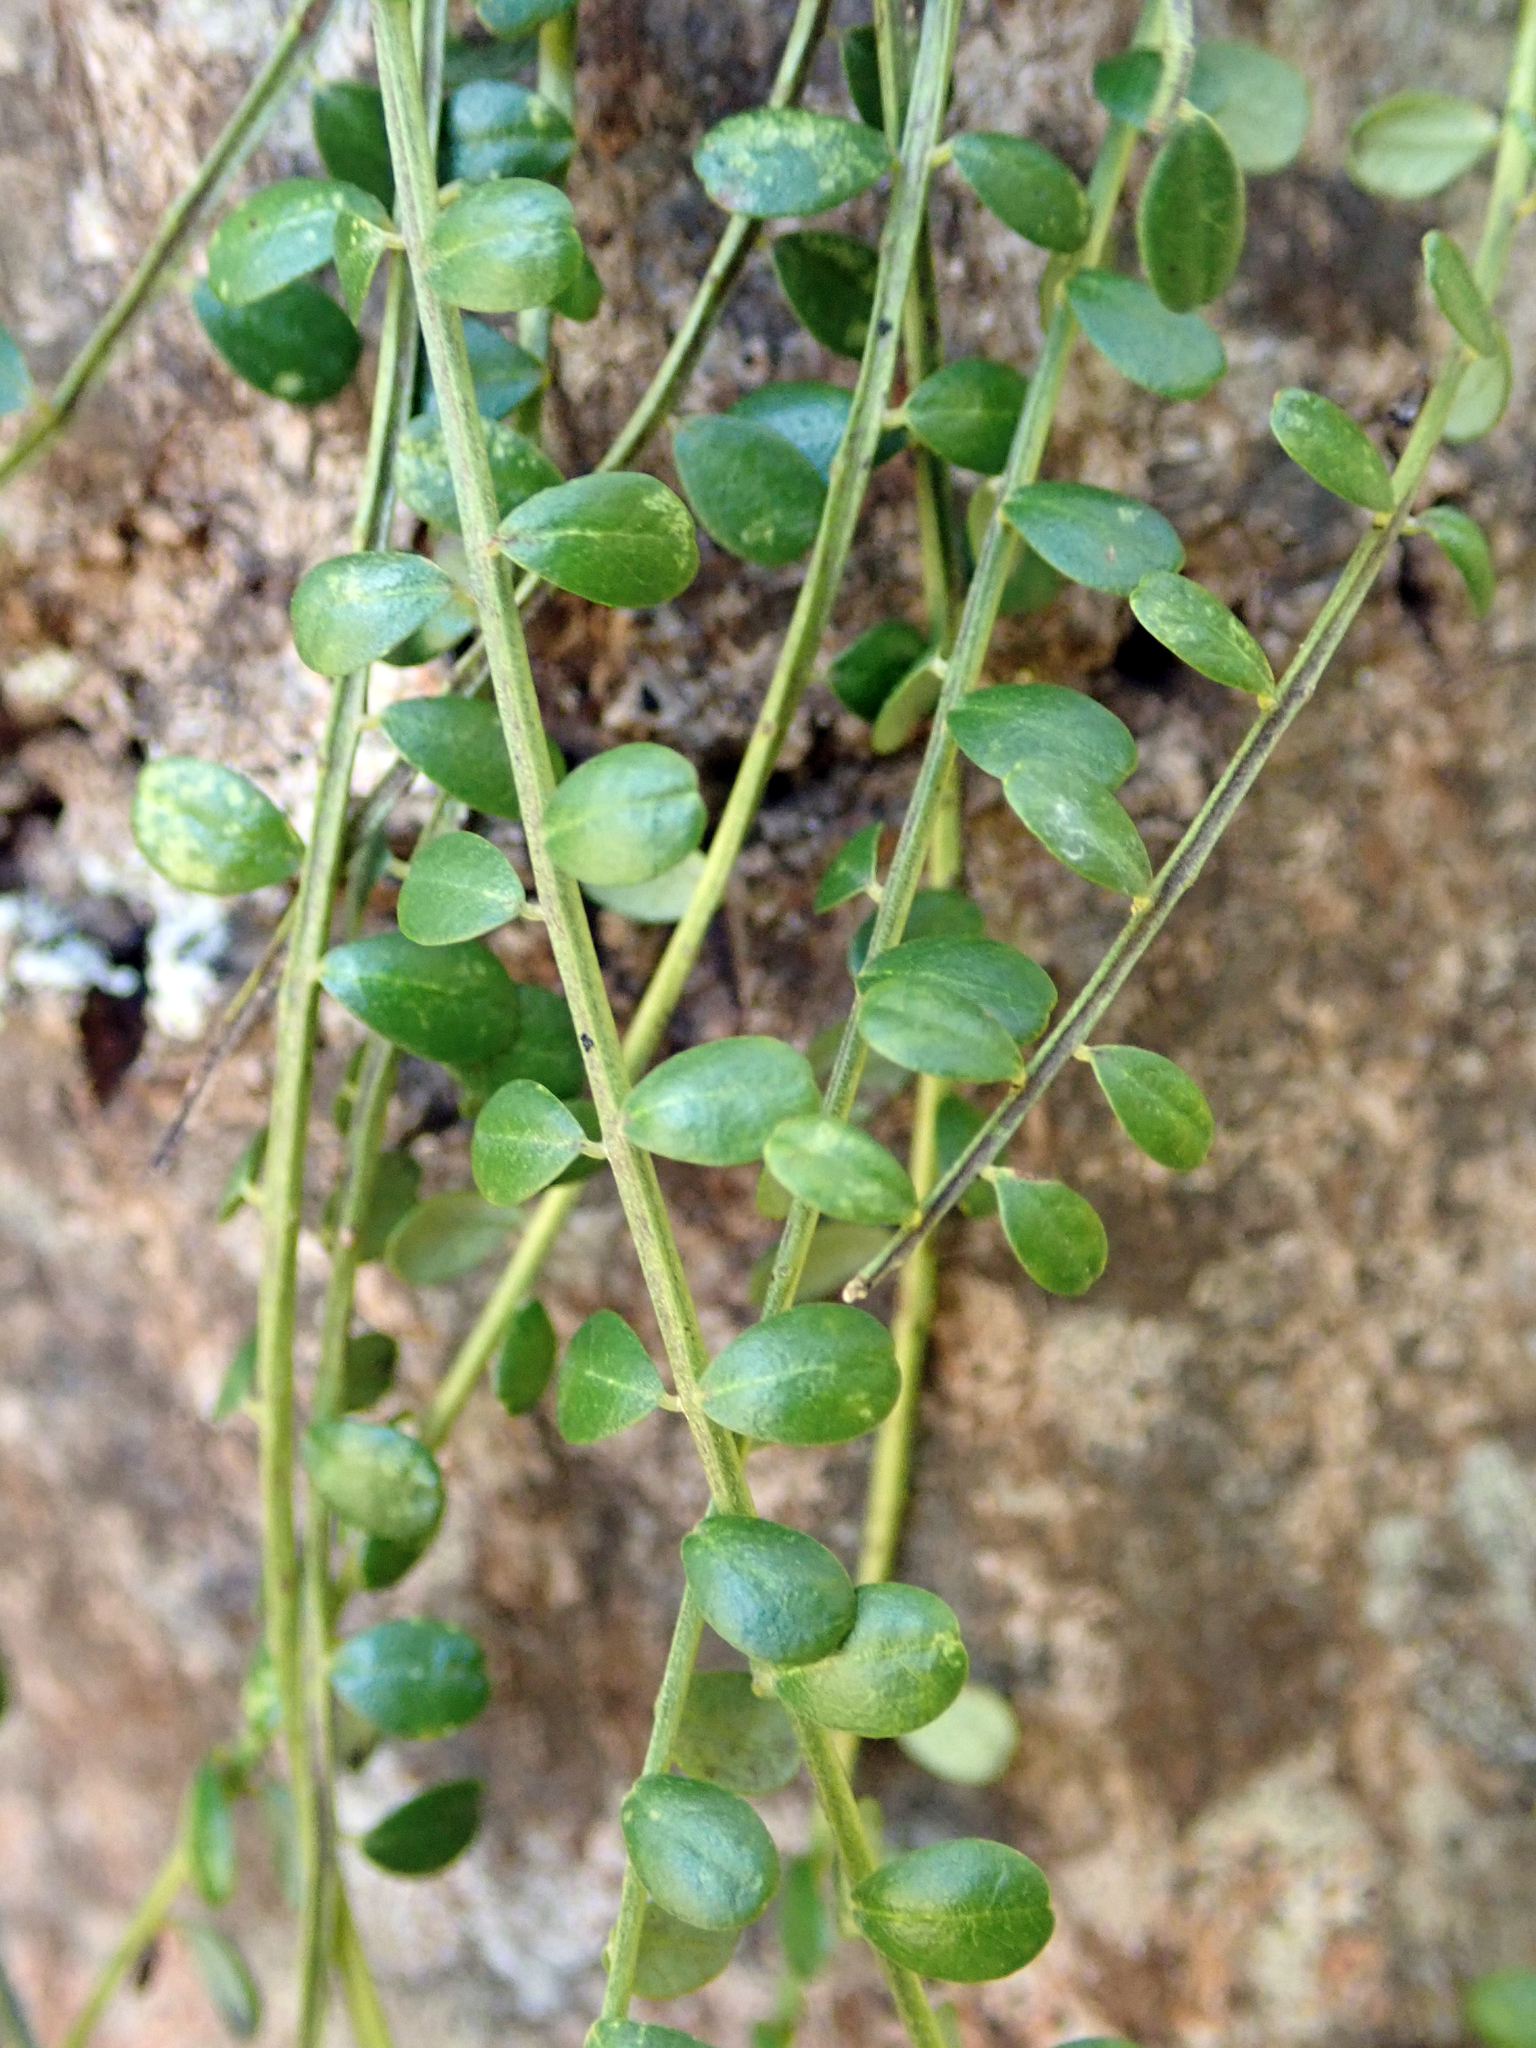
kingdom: Plantae
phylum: Tracheophyta
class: Magnoliopsida
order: Fabales
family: Fabaceae
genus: Sophora
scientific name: Sophora longicarinata
